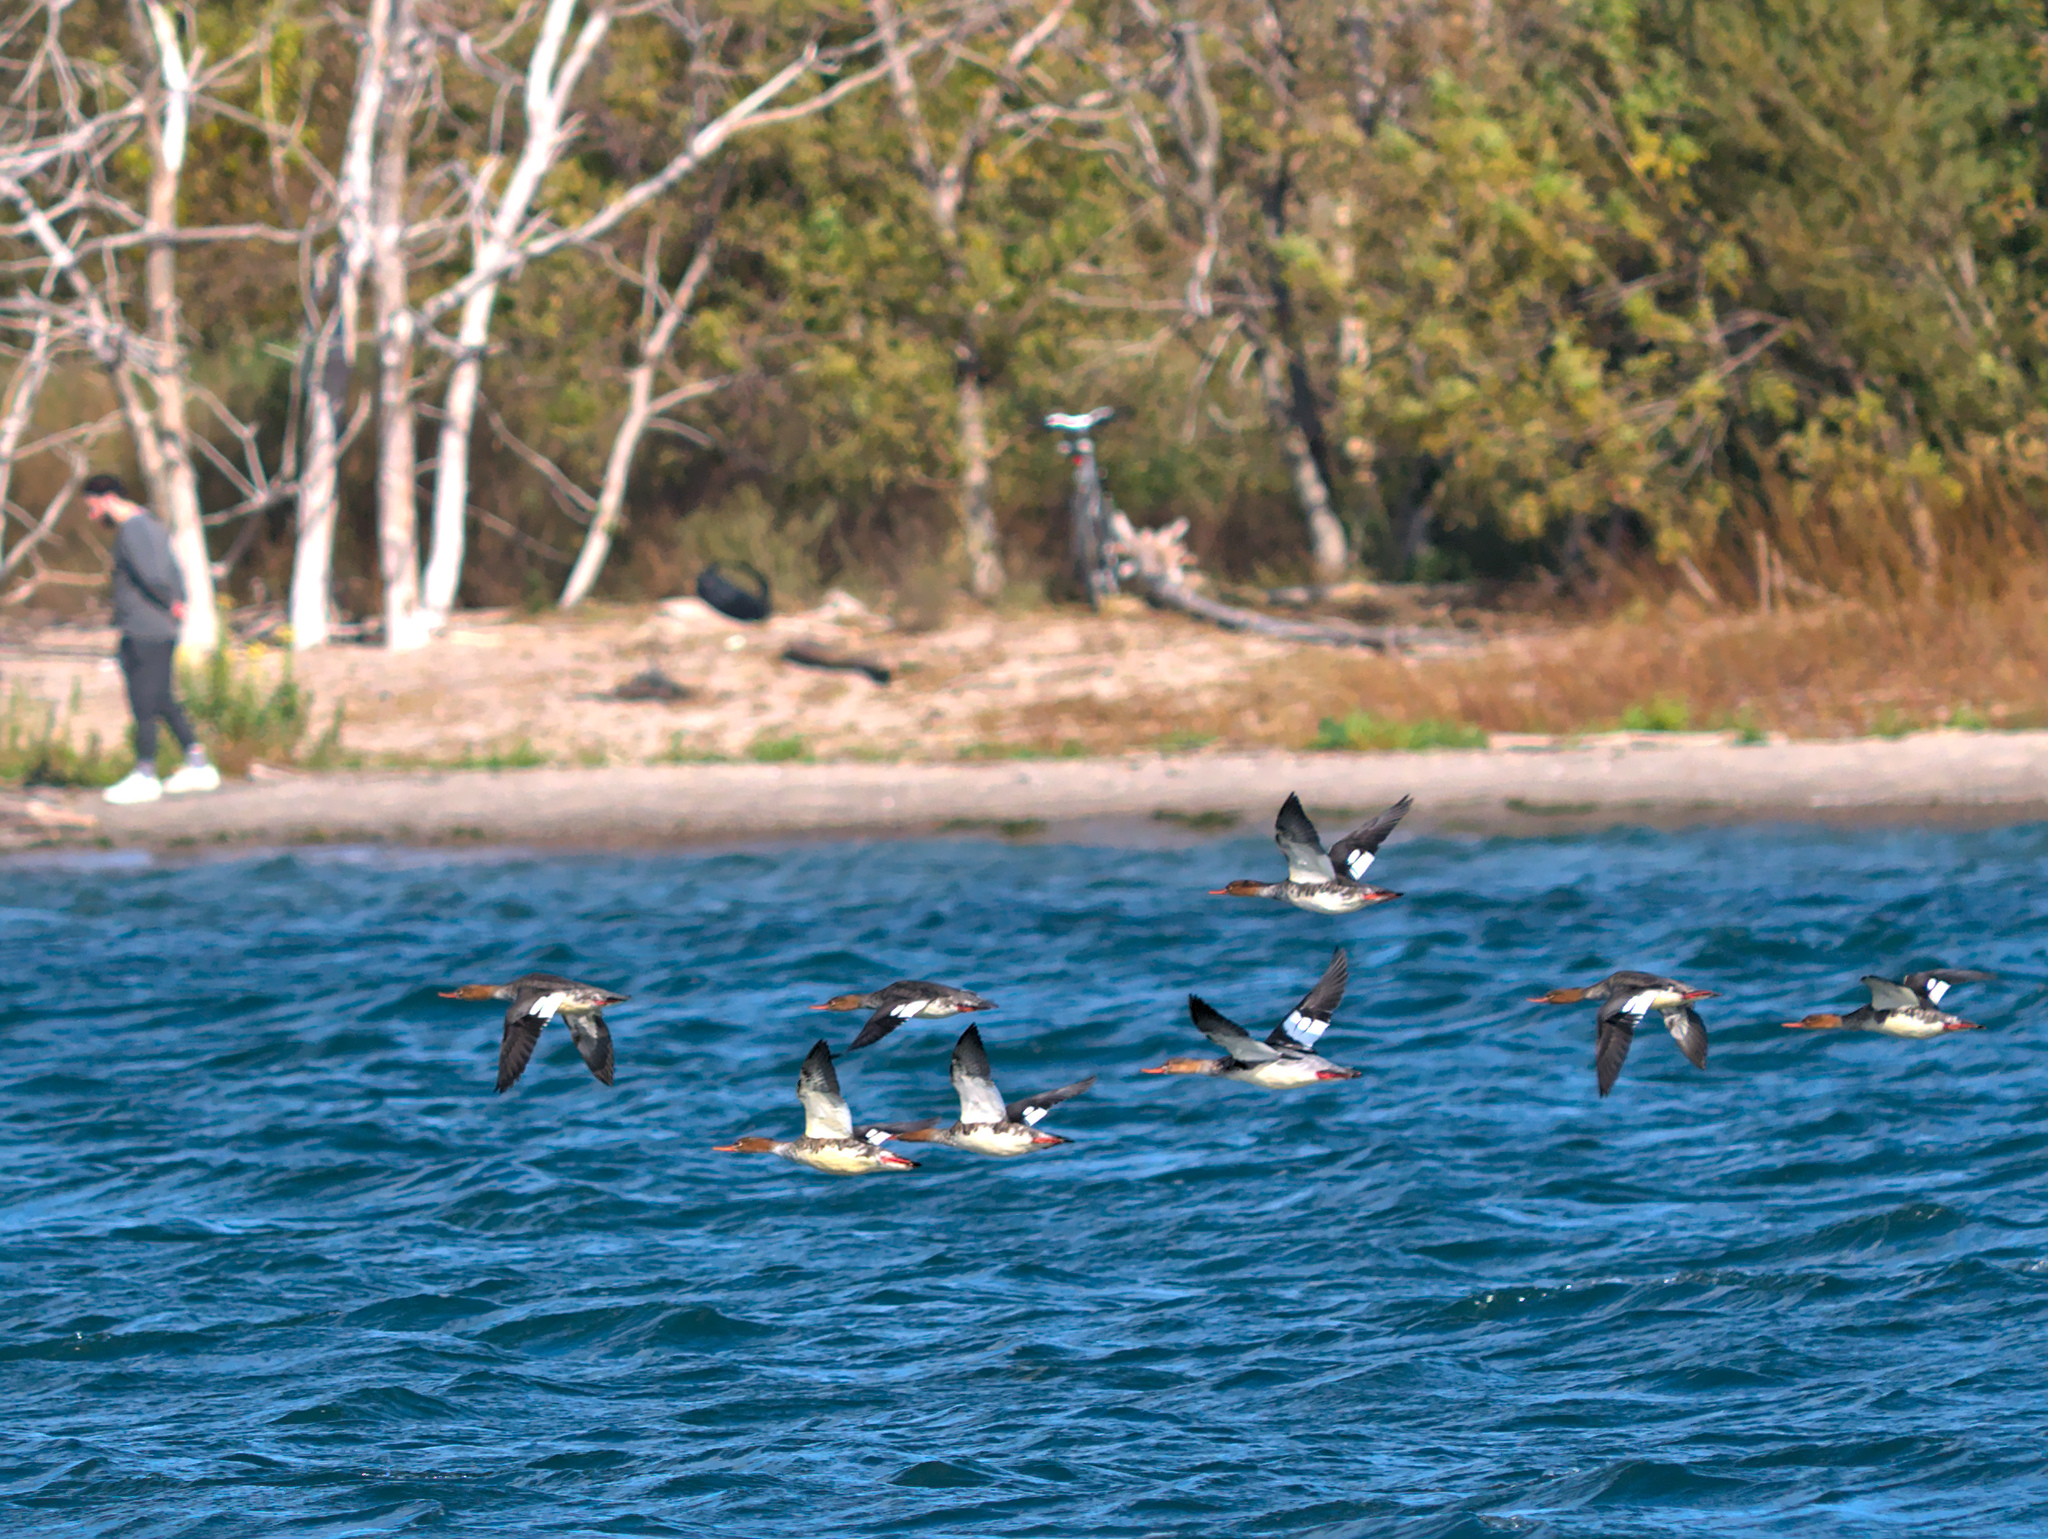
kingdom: Animalia
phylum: Chordata
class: Aves
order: Anseriformes
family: Anatidae
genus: Mergus
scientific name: Mergus serrator
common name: Red-breasted merganser
